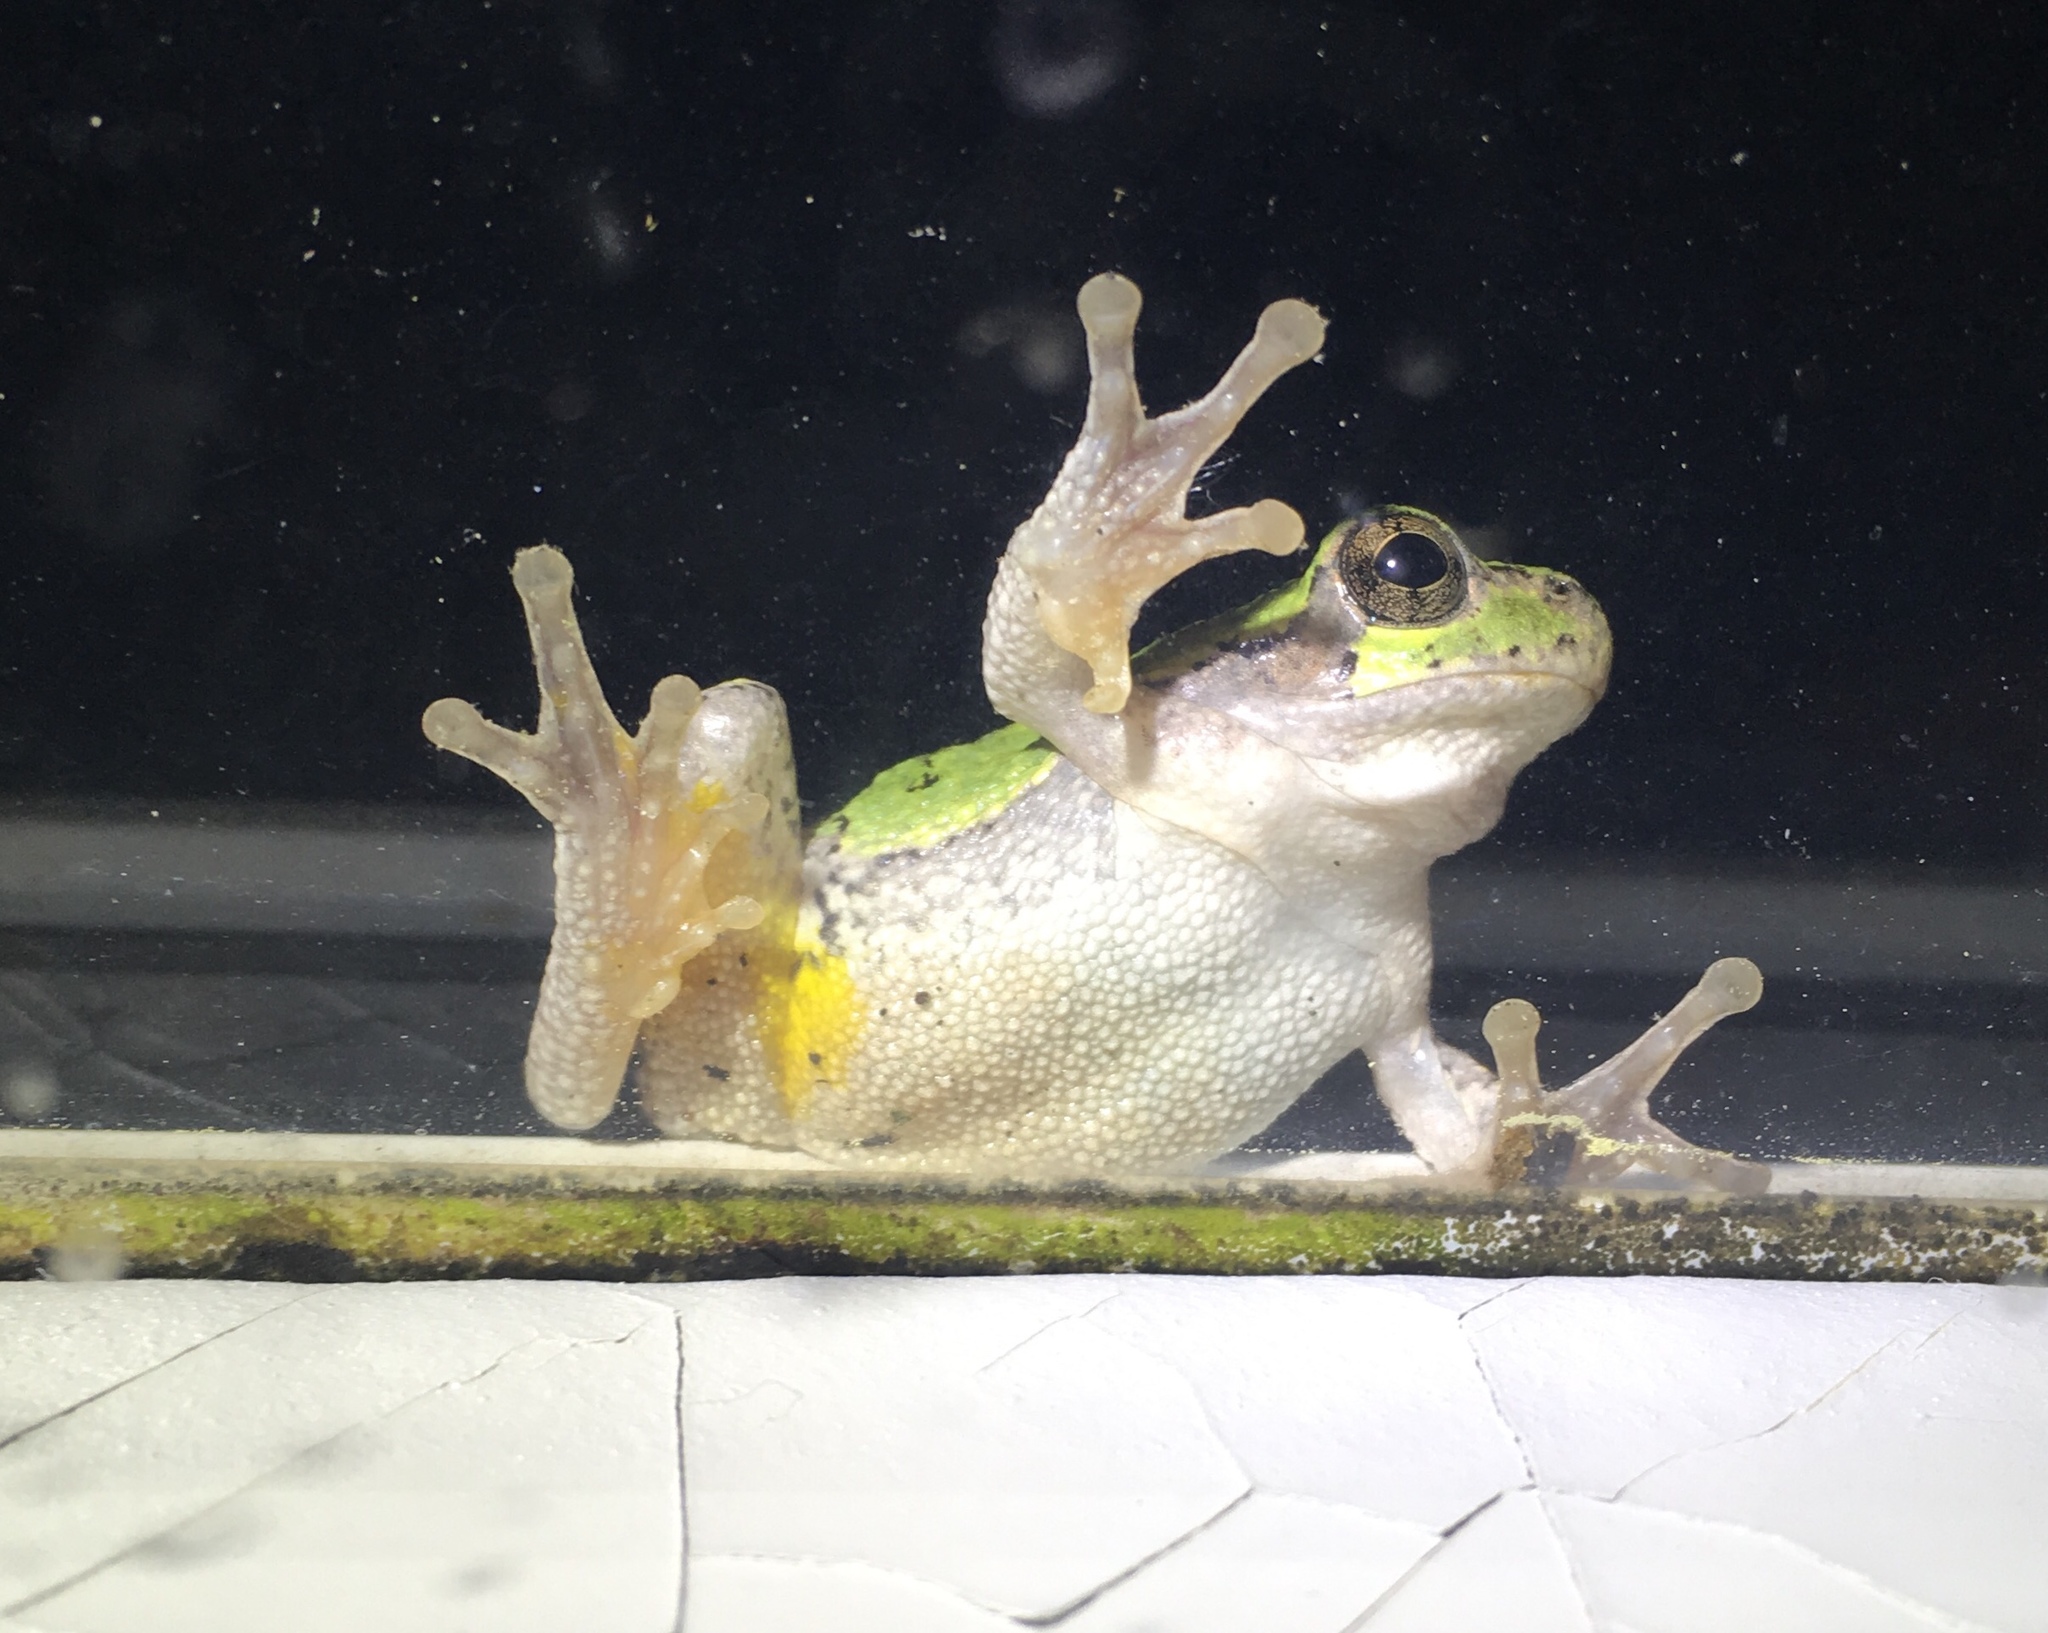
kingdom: Animalia
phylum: Chordata
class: Amphibia
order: Anura
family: Hylidae
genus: Hyla
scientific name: Hyla
